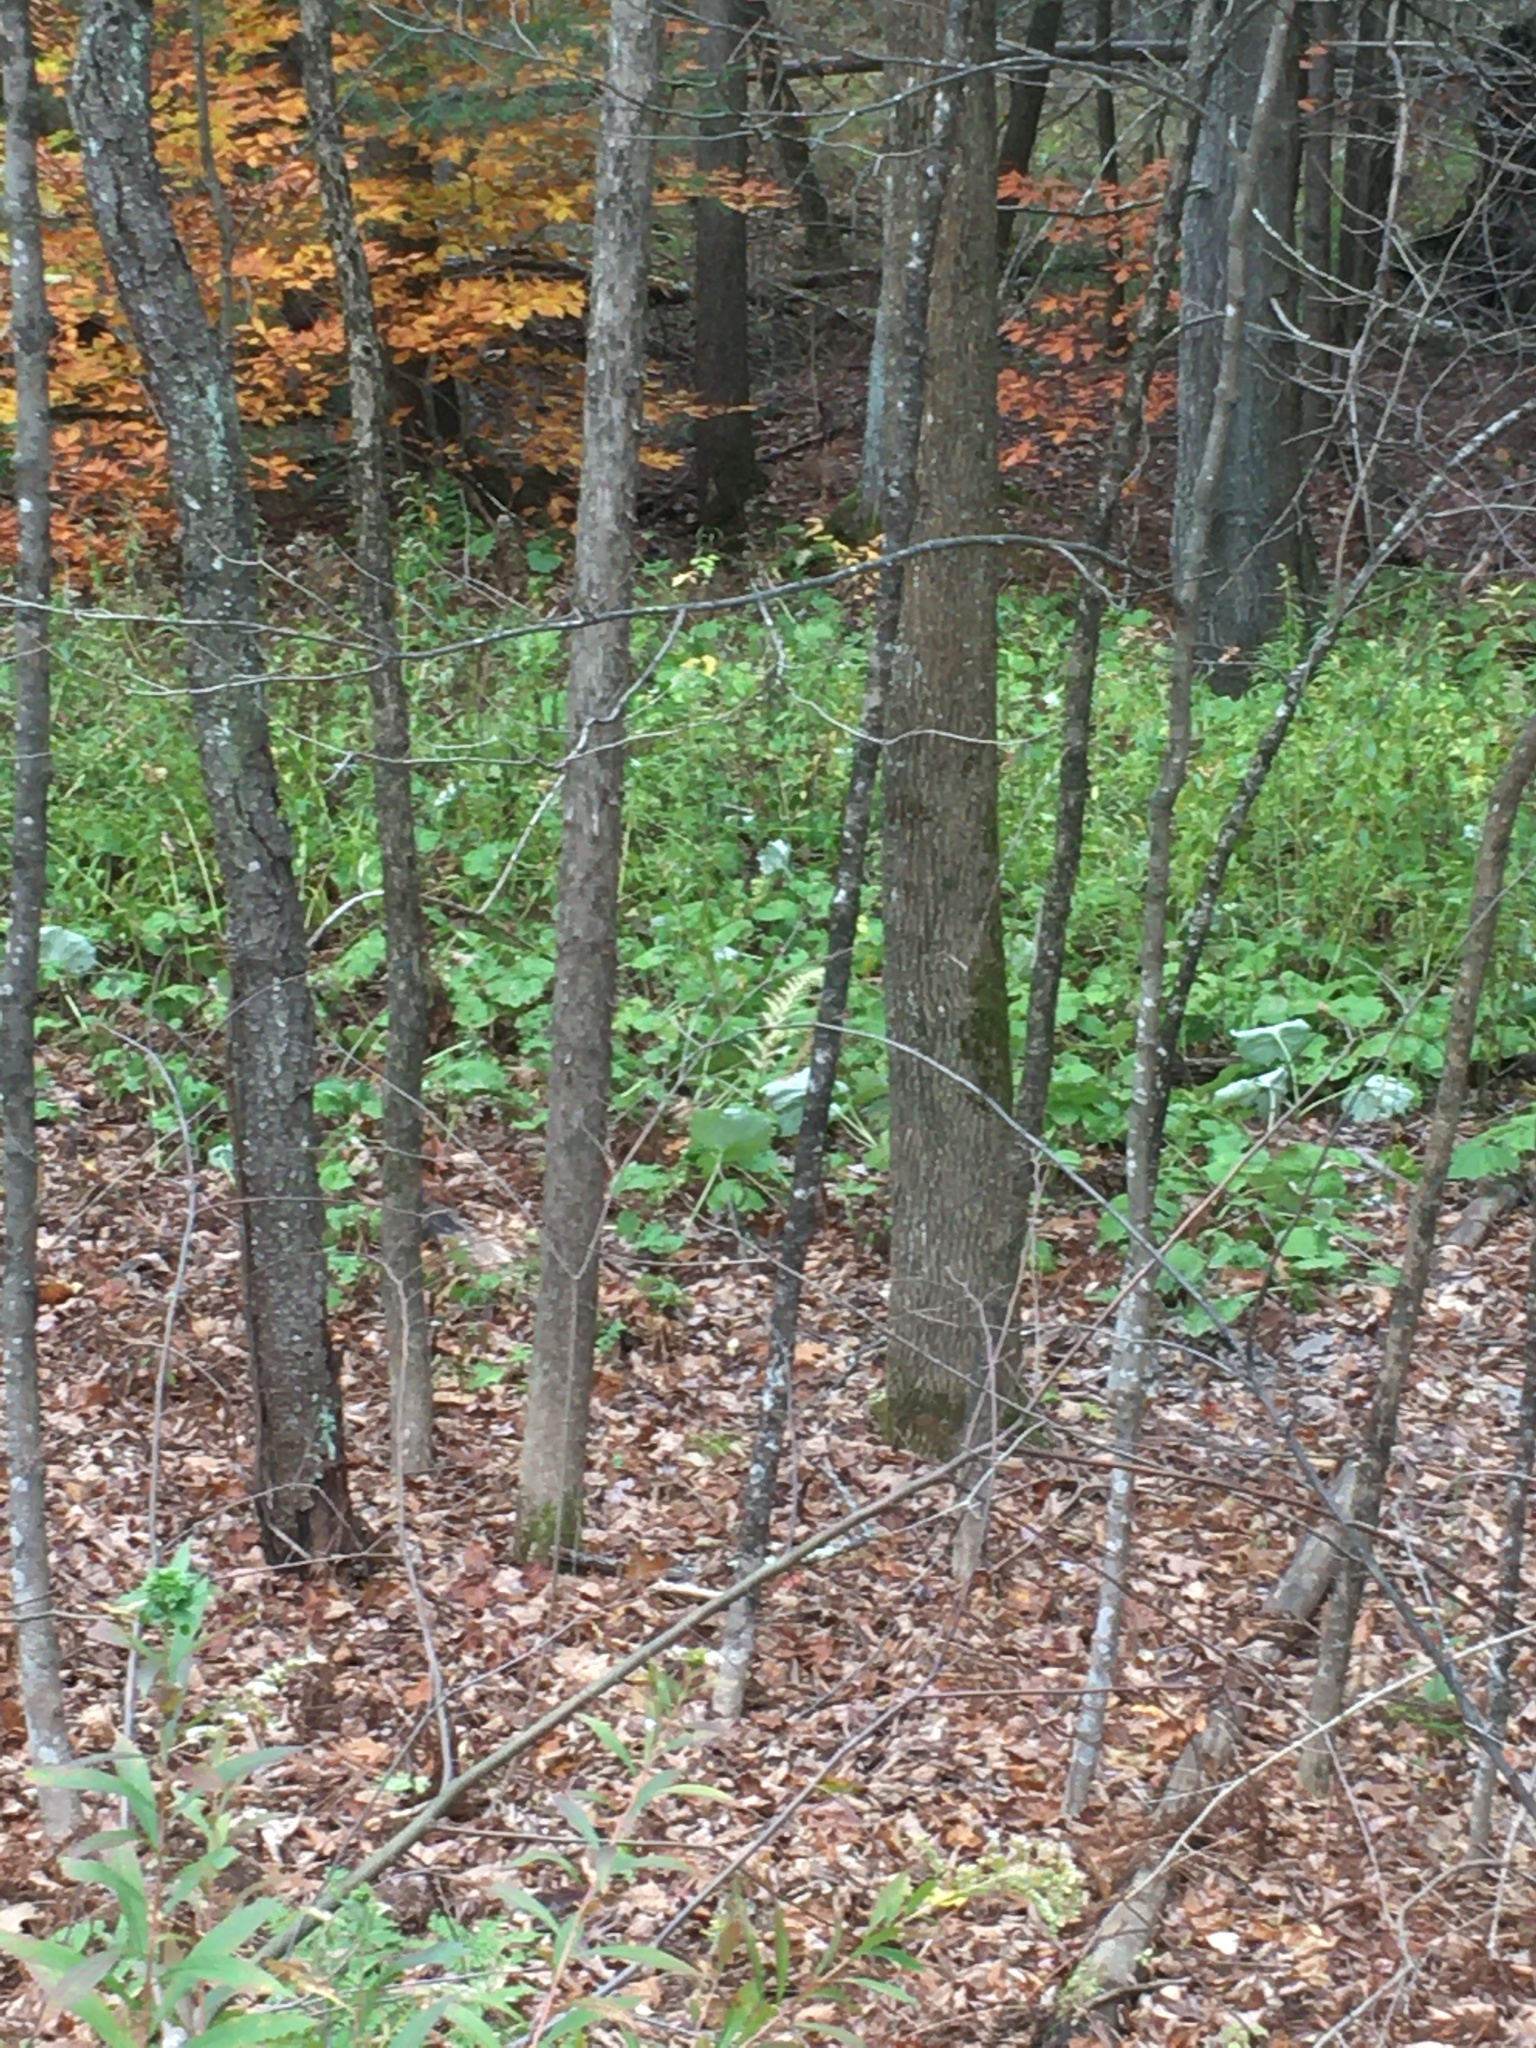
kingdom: Plantae
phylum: Tracheophyta
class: Magnoliopsida
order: Asterales
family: Asteraceae
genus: Tussilago
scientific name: Tussilago farfara
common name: Coltsfoot
